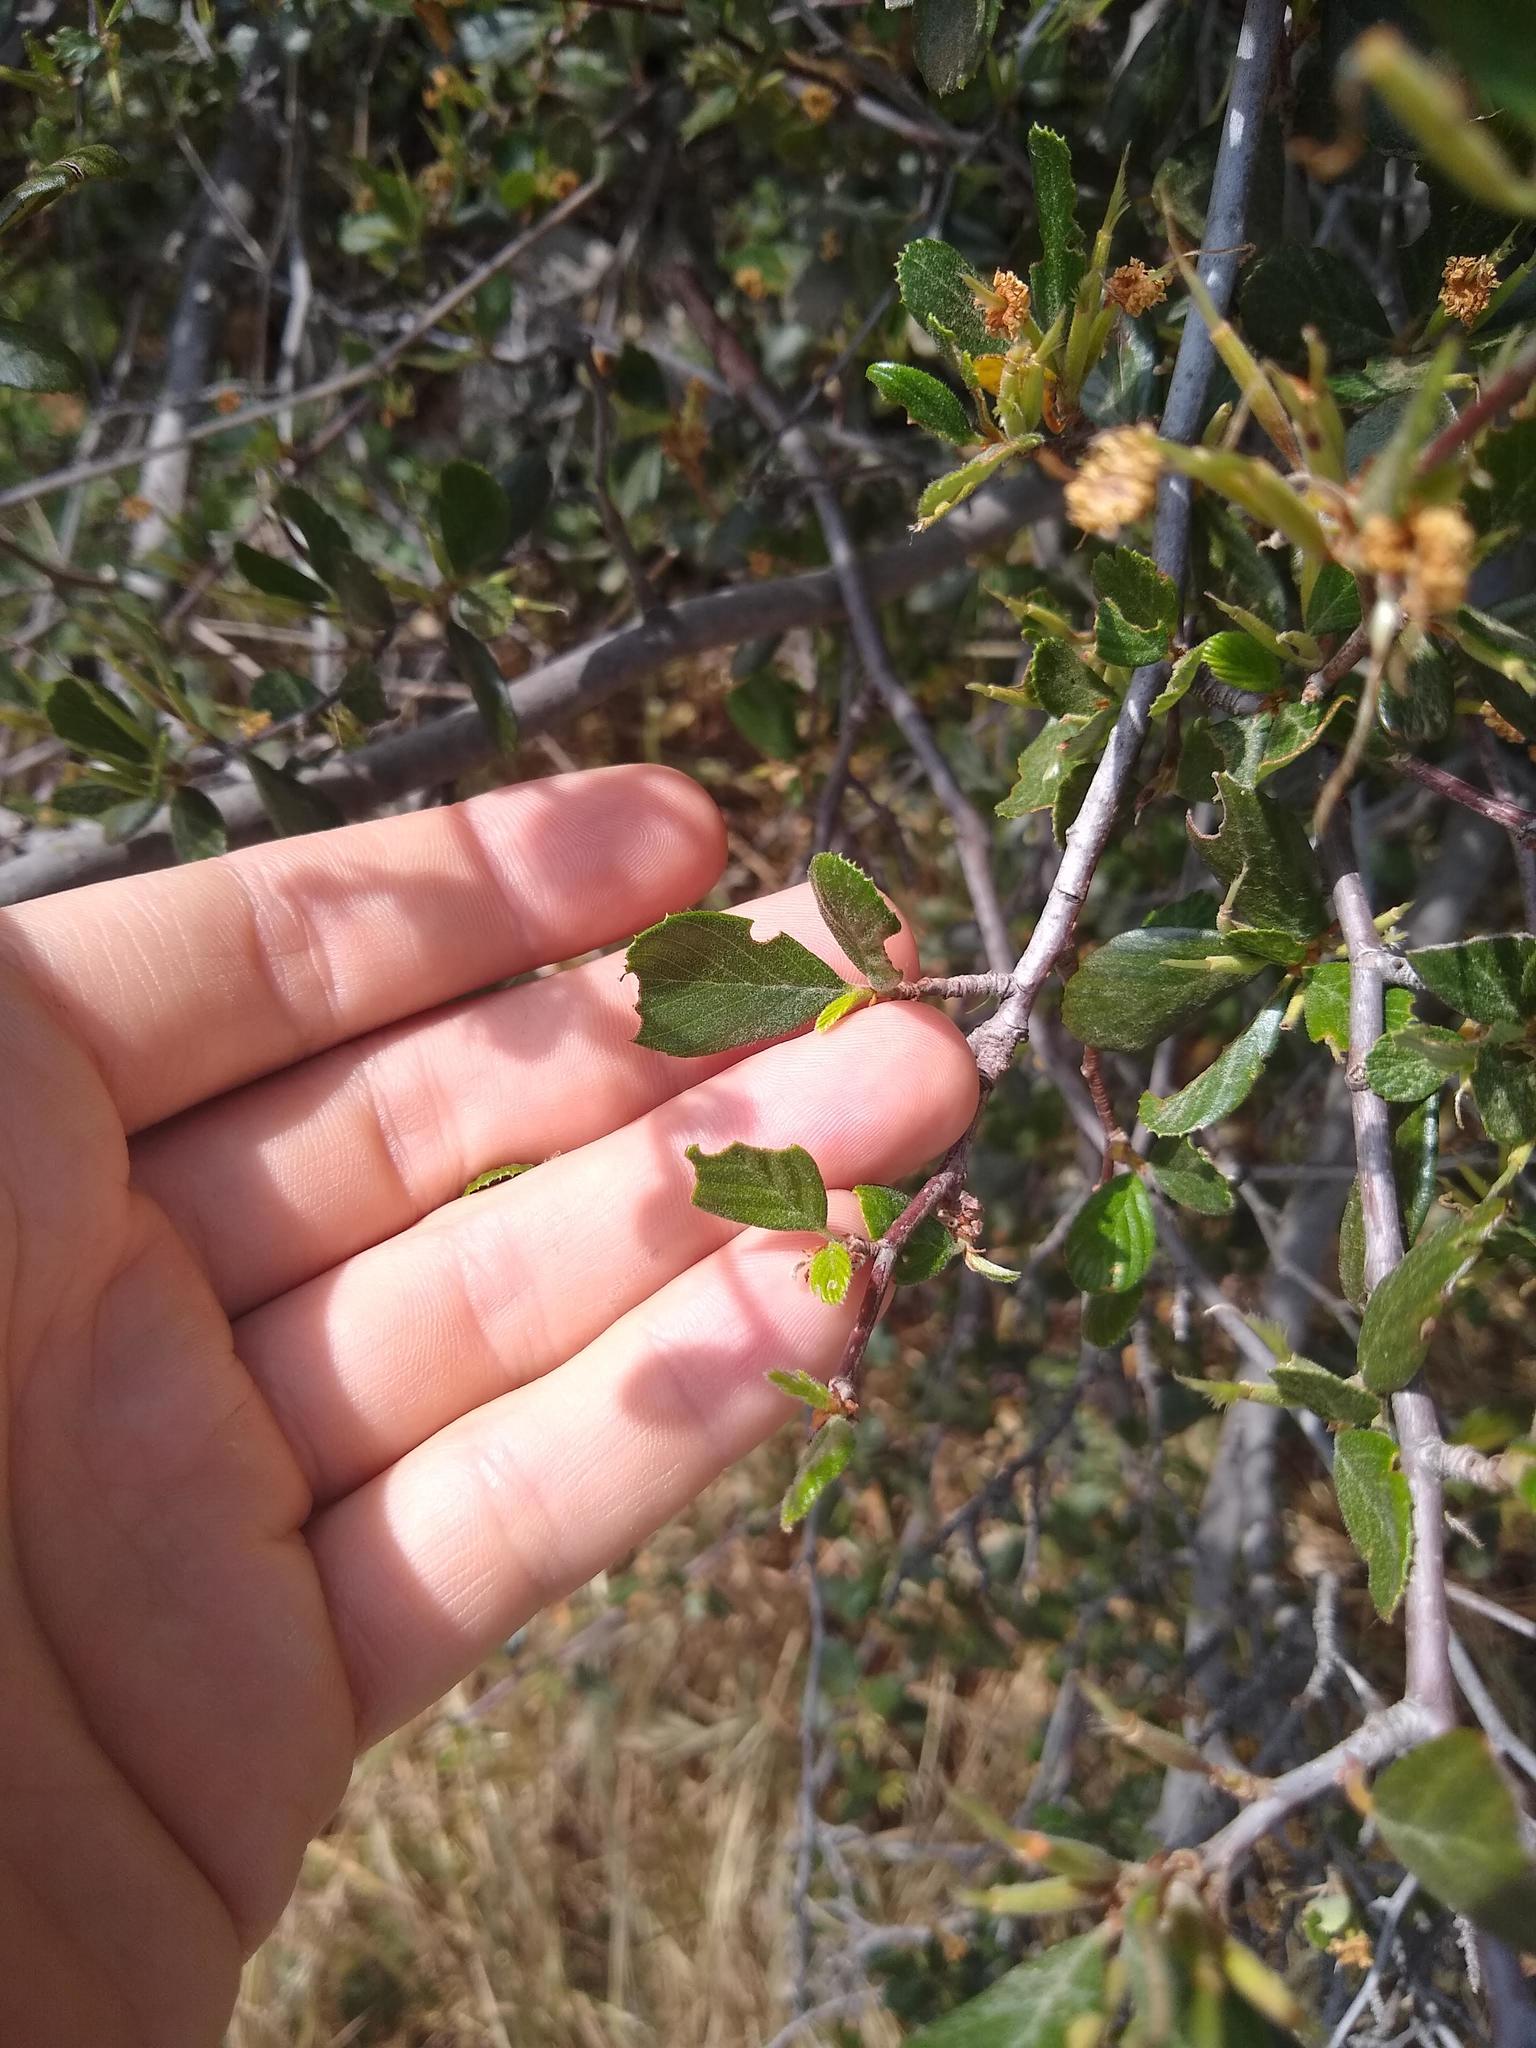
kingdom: Plantae
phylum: Tracheophyta
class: Magnoliopsida
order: Rosales
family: Rosaceae
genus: Cercocarpus
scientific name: Cercocarpus betuloides
